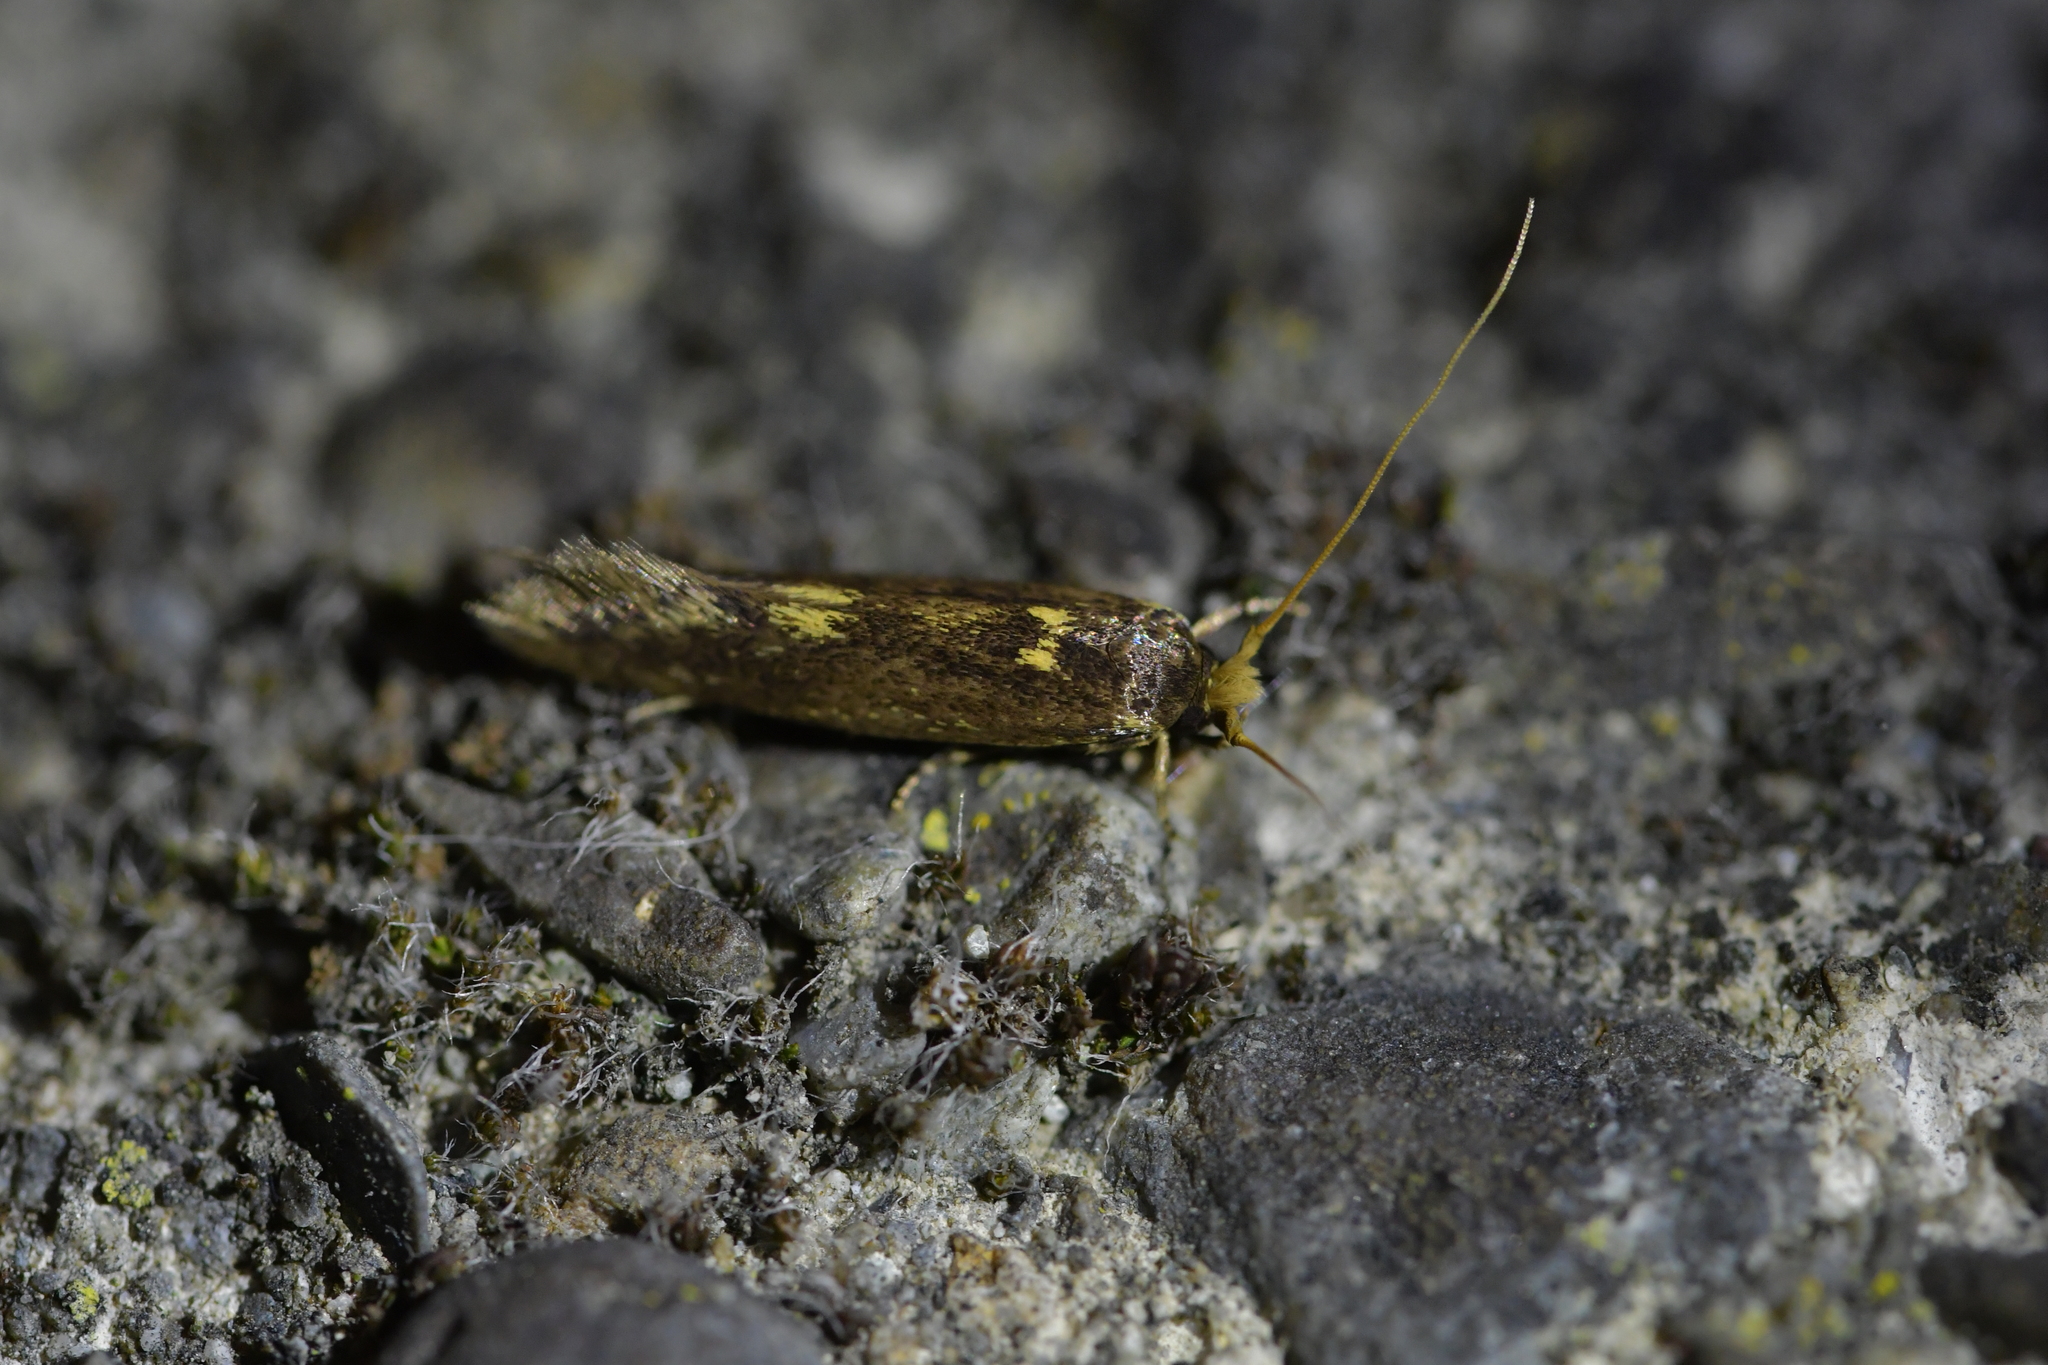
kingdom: Animalia
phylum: Arthropoda
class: Insecta
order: Lepidoptera
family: Tineidae
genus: Opogona
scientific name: Opogona omoscopa
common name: Moth
